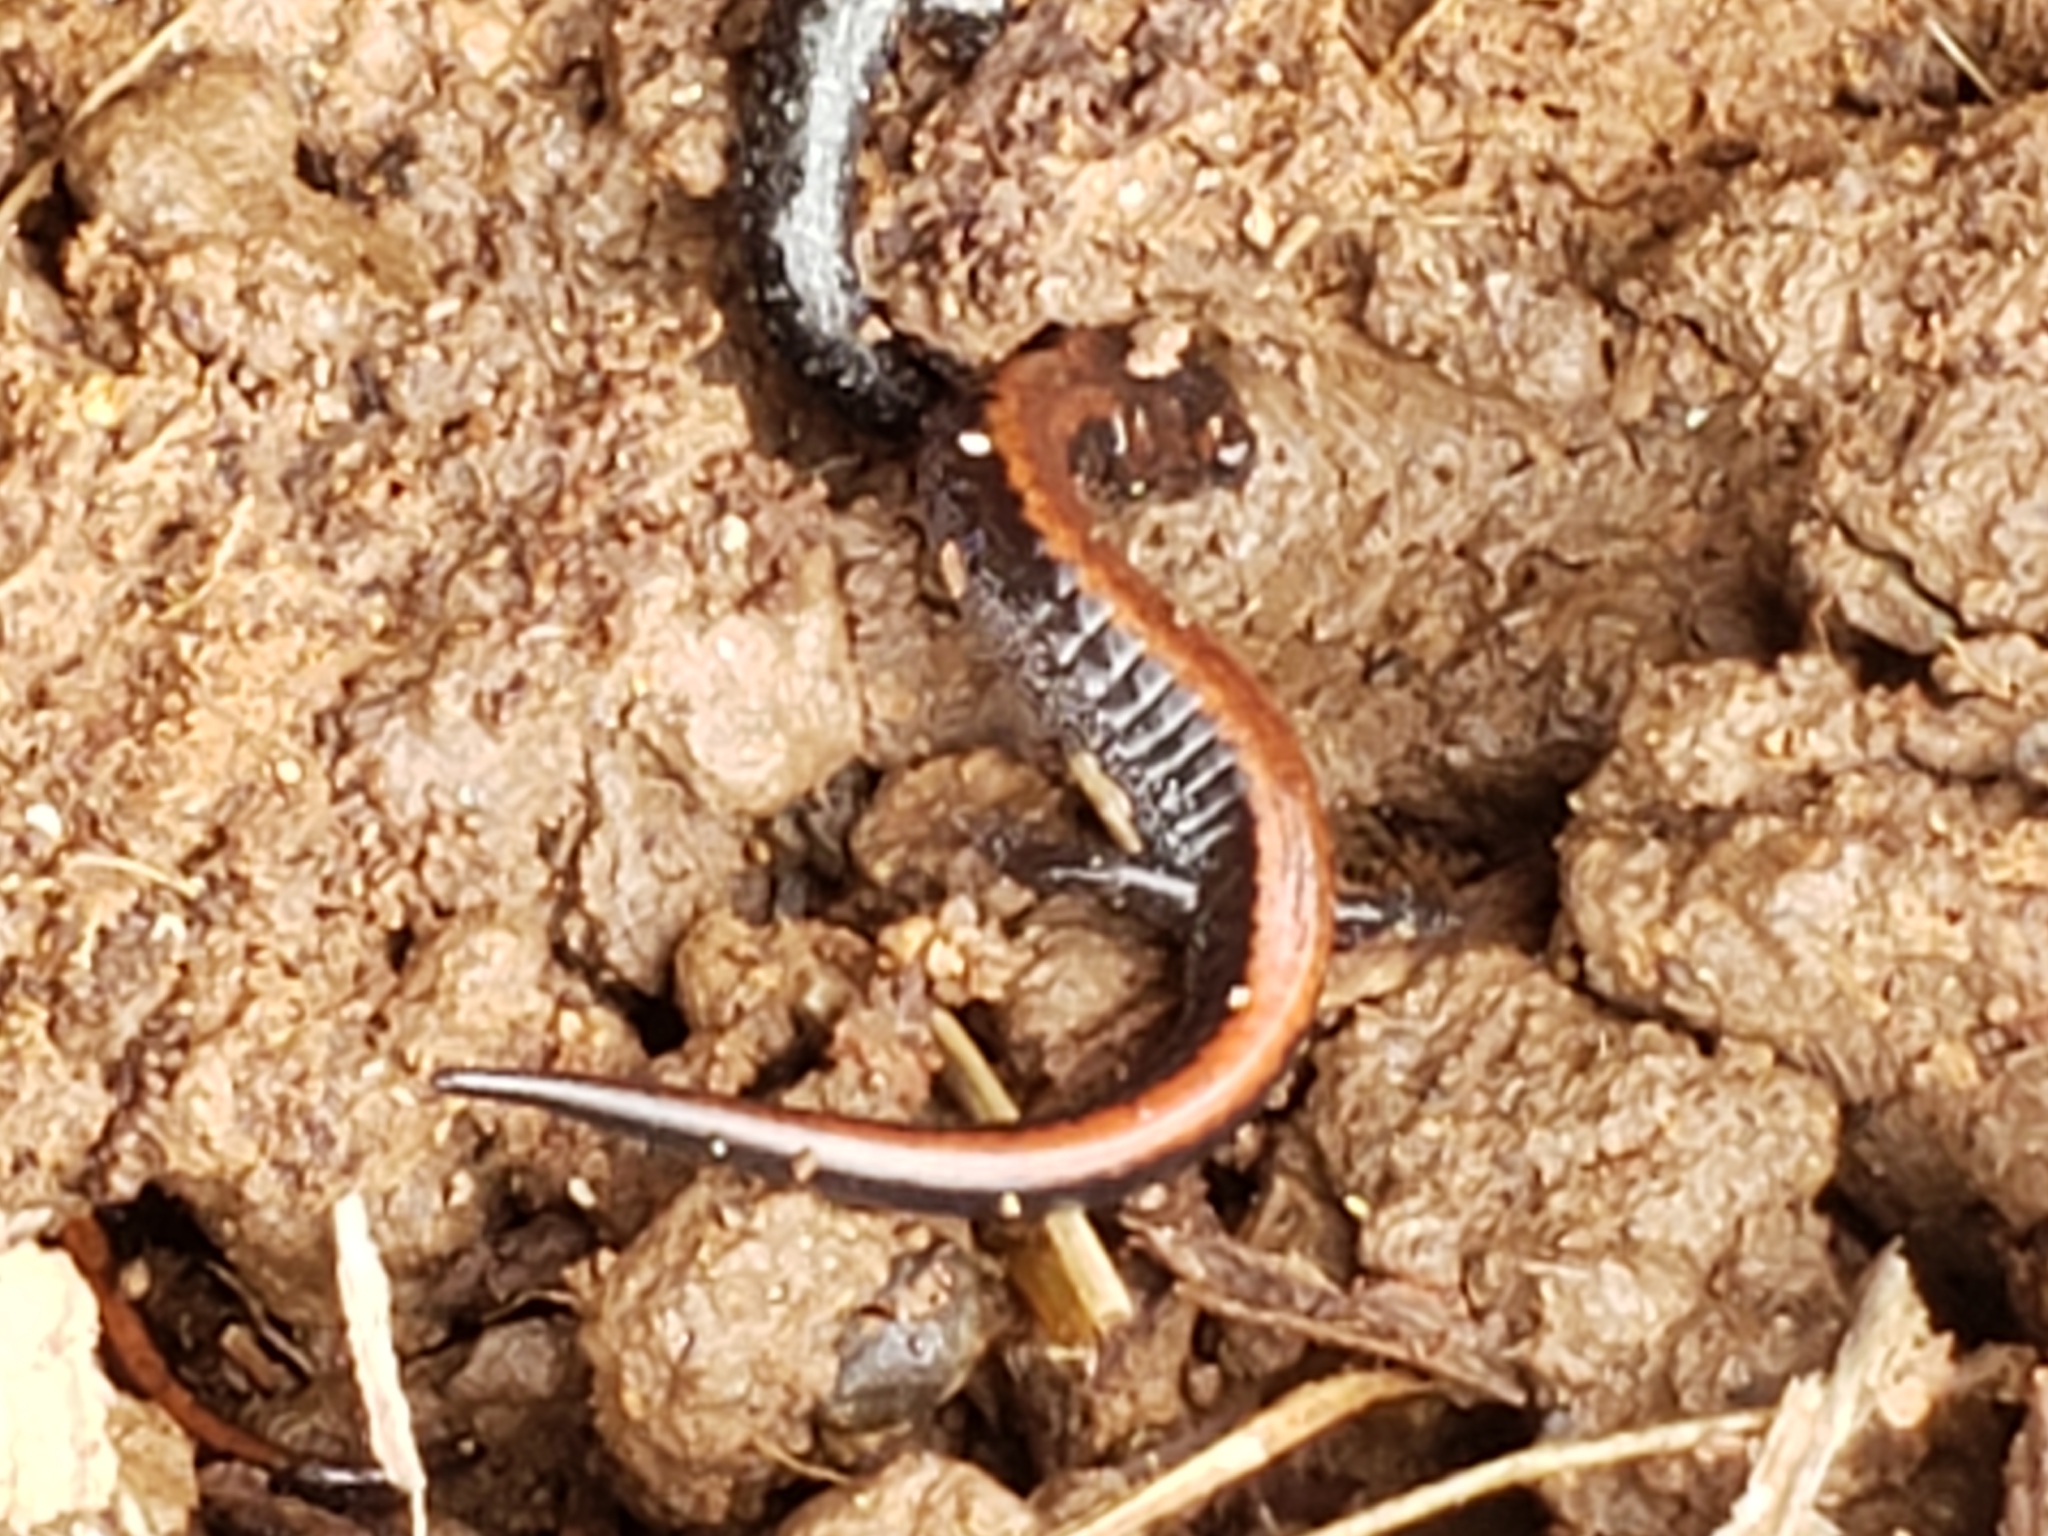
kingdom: Animalia
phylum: Chordata
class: Amphibia
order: Caudata
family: Plethodontidae
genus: Plethodon
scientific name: Plethodon cinereus
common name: Redback salamander
